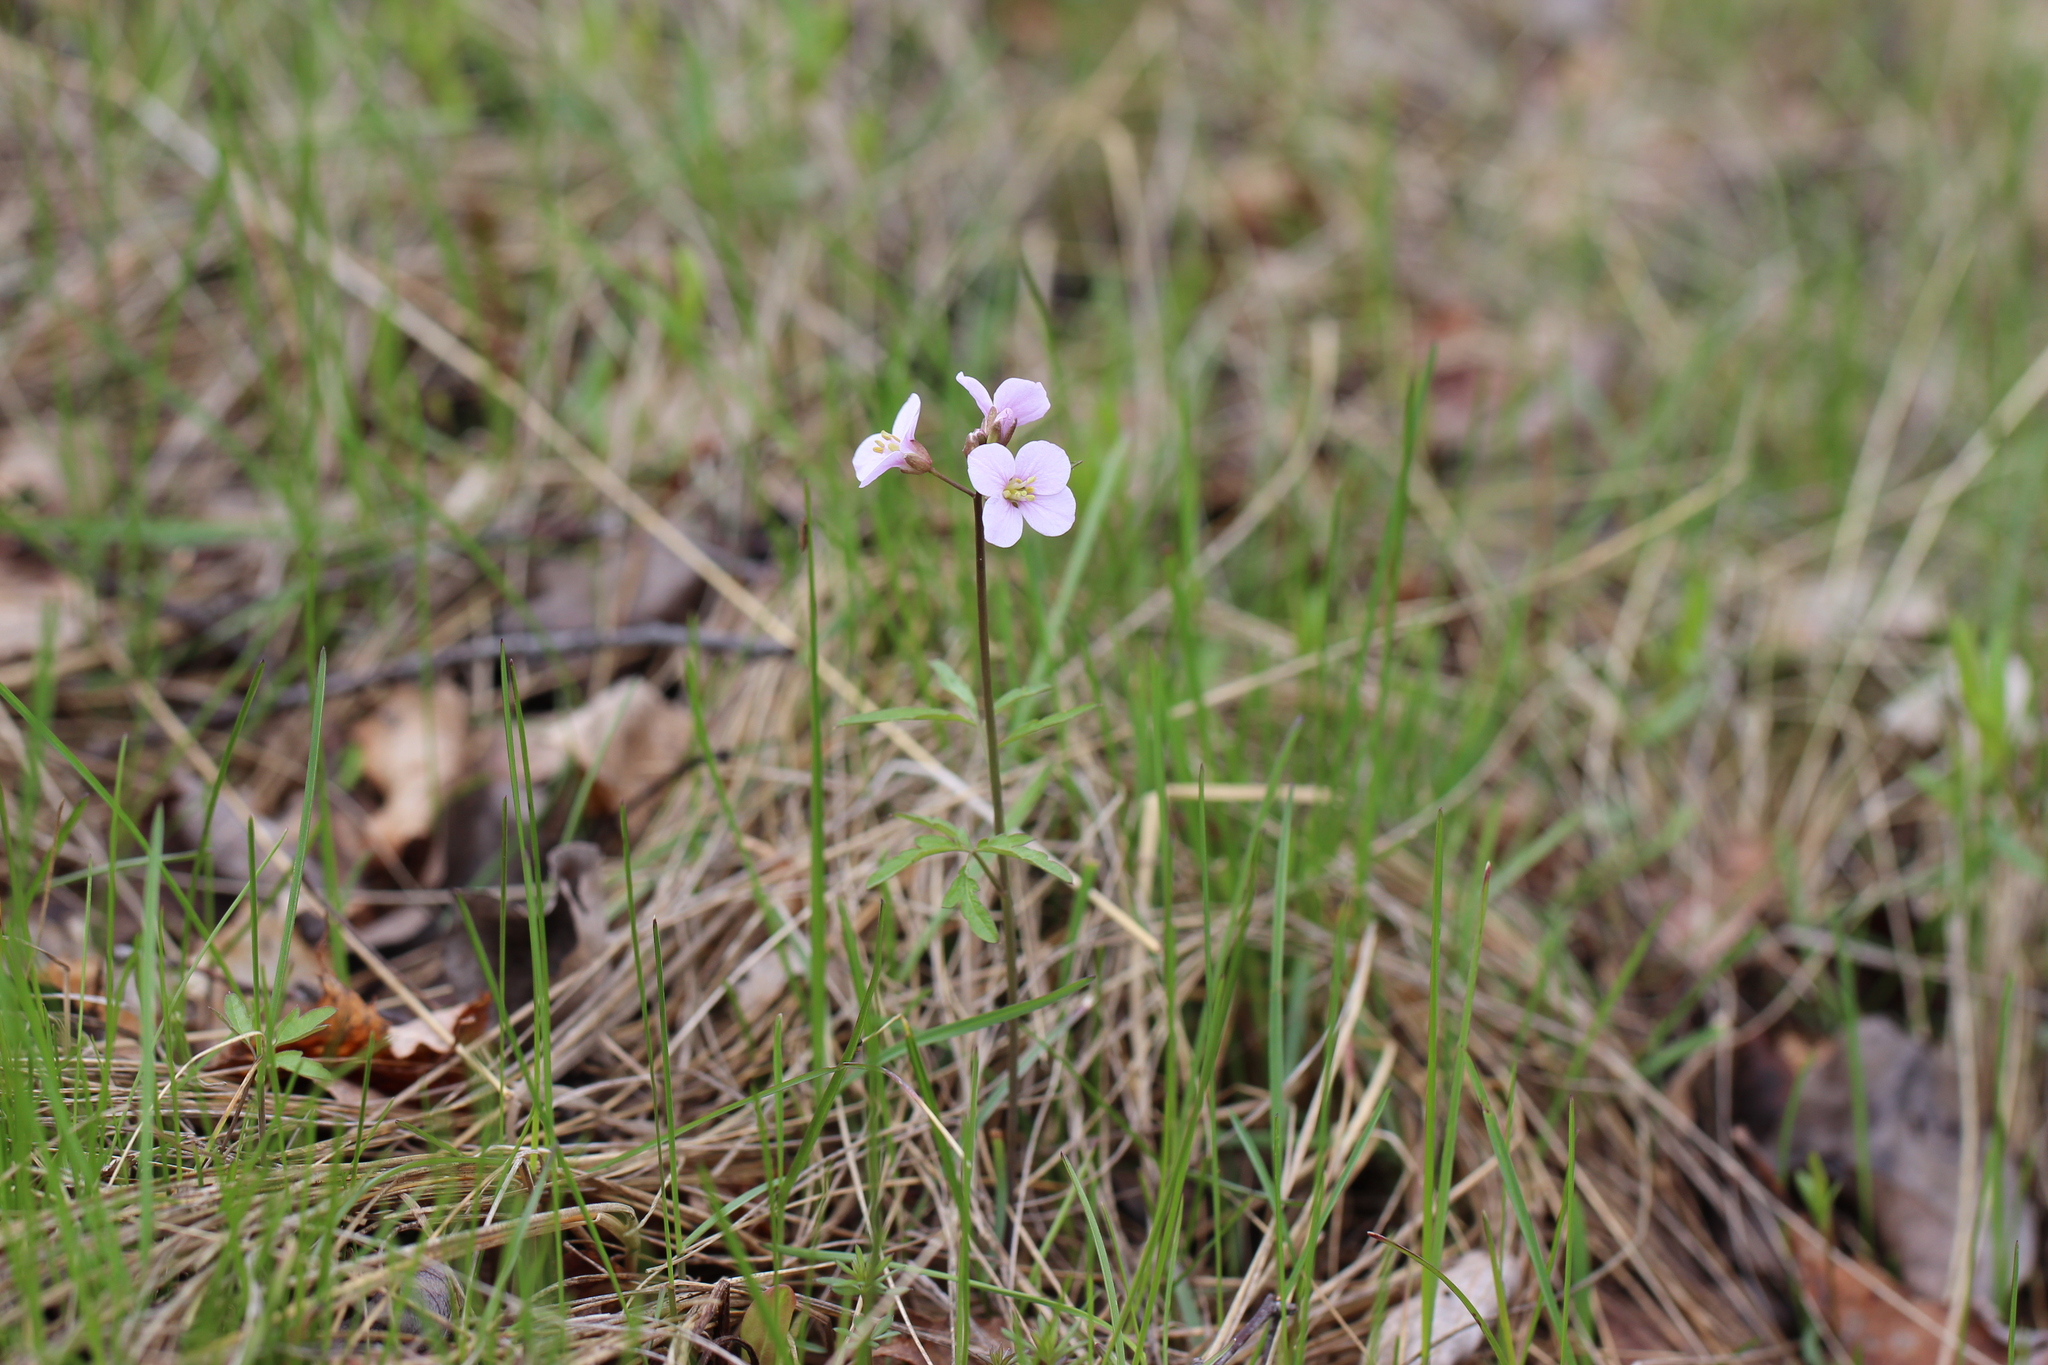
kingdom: Plantae
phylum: Tracheophyta
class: Magnoliopsida
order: Brassicales
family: Brassicaceae
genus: Cardamine
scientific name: Cardamine trifida
